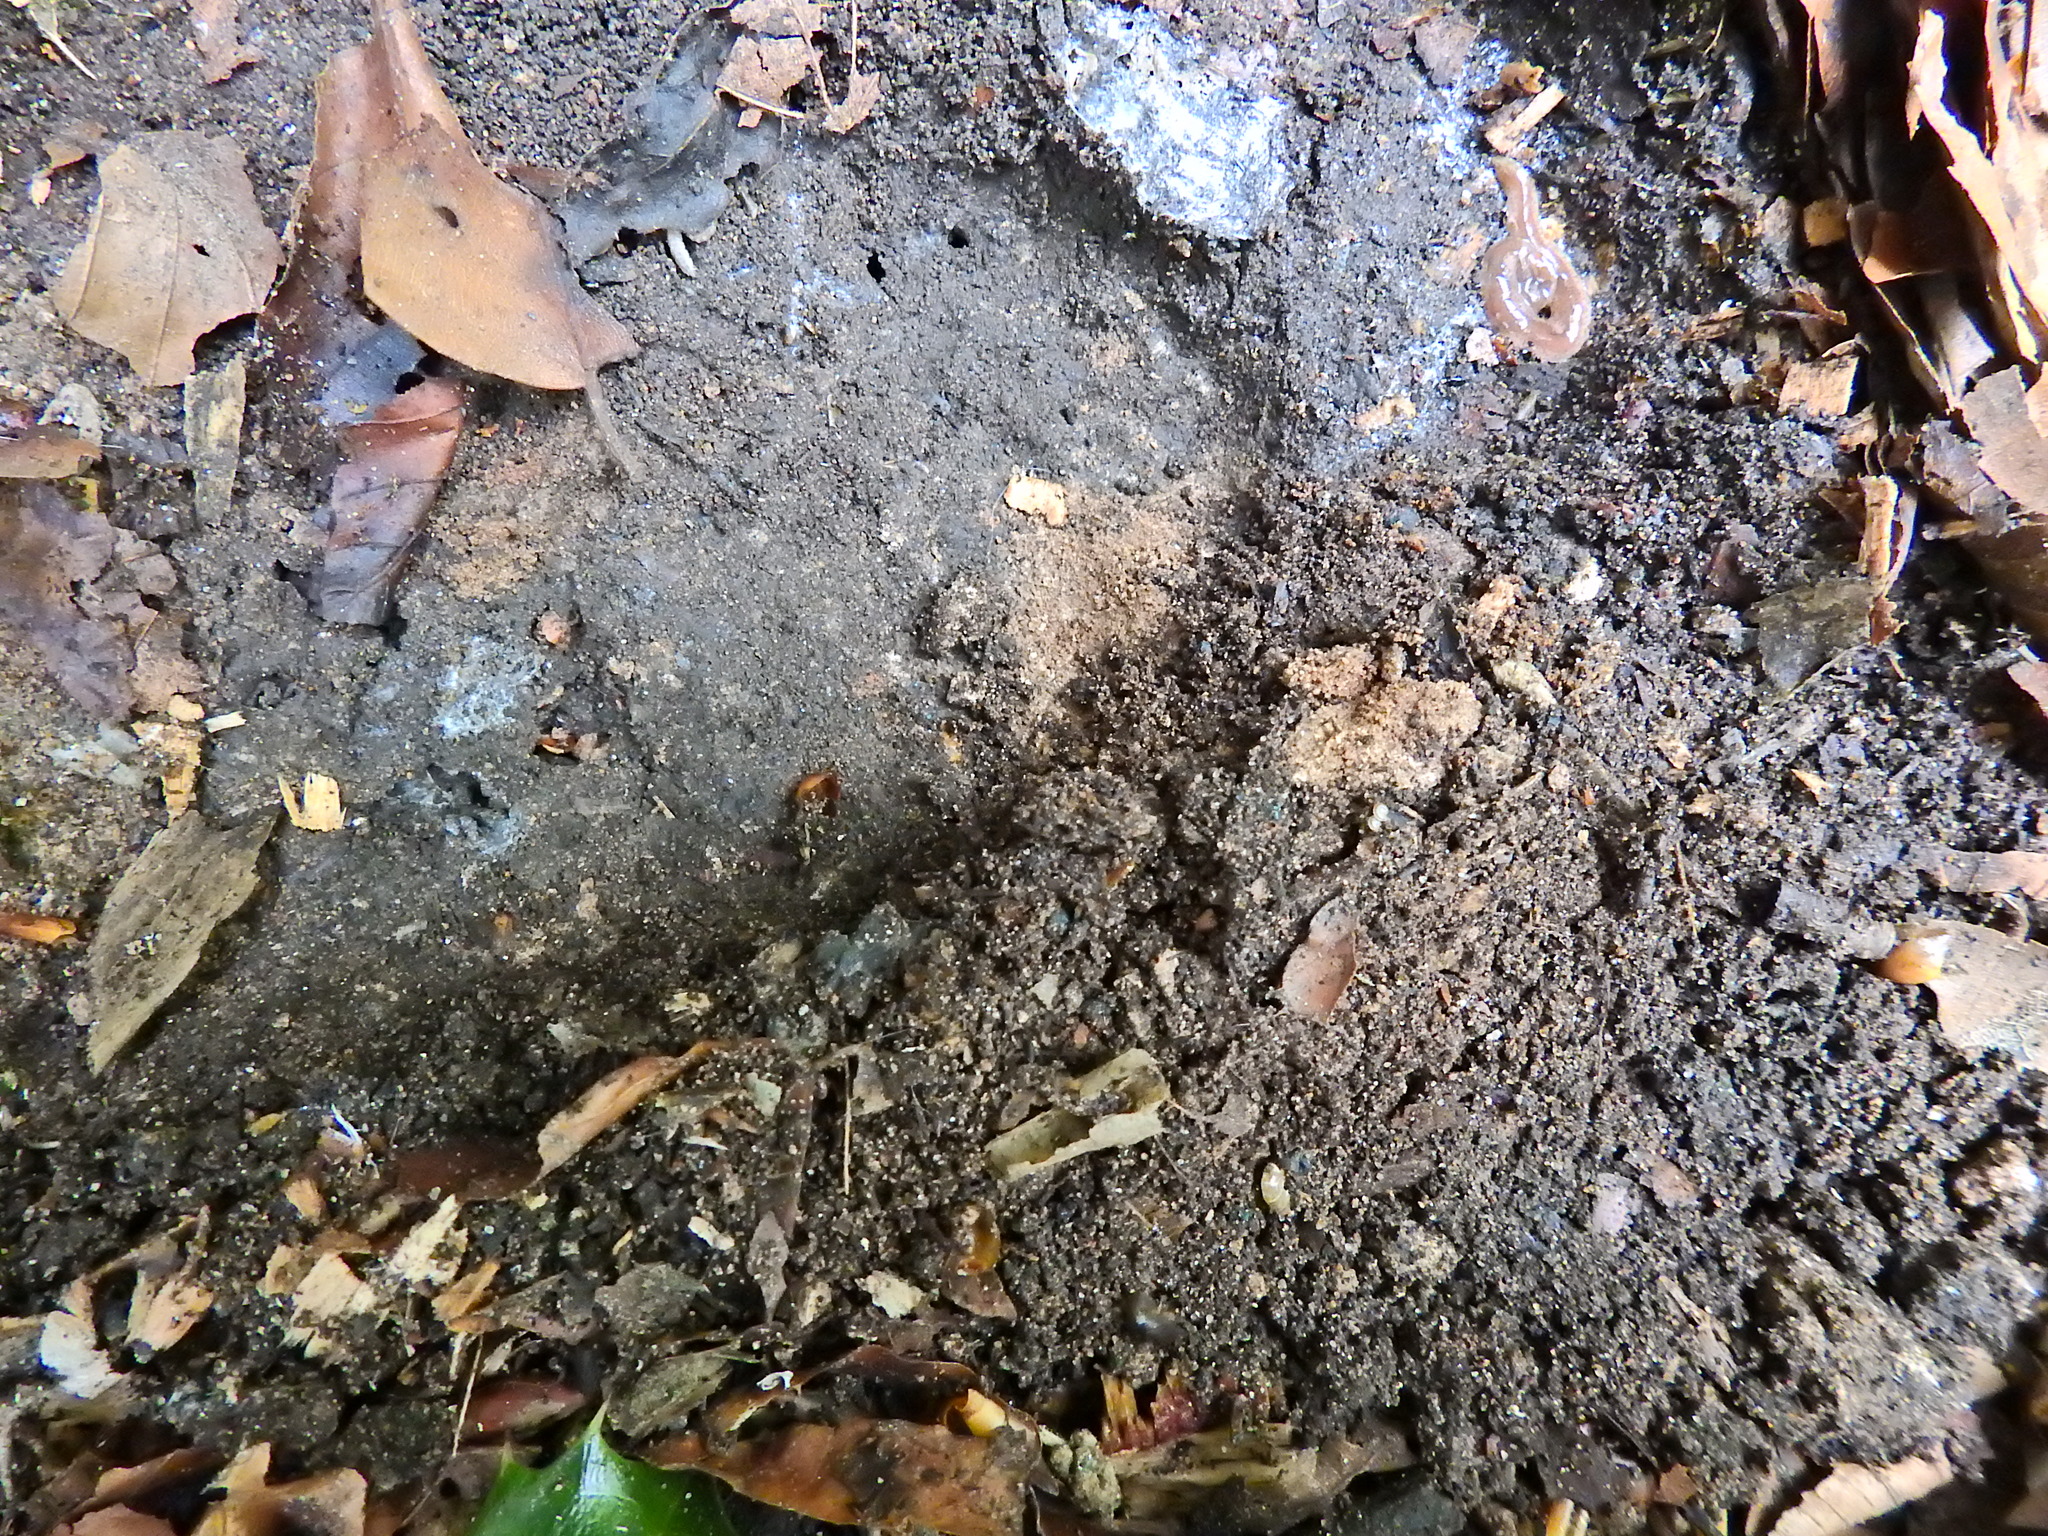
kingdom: Animalia
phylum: Platyhelminthes
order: Tricladida
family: Geoplanidae
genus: Arthurdendyus
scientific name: Arthurdendyus triangulatus
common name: New zealand flatworm
